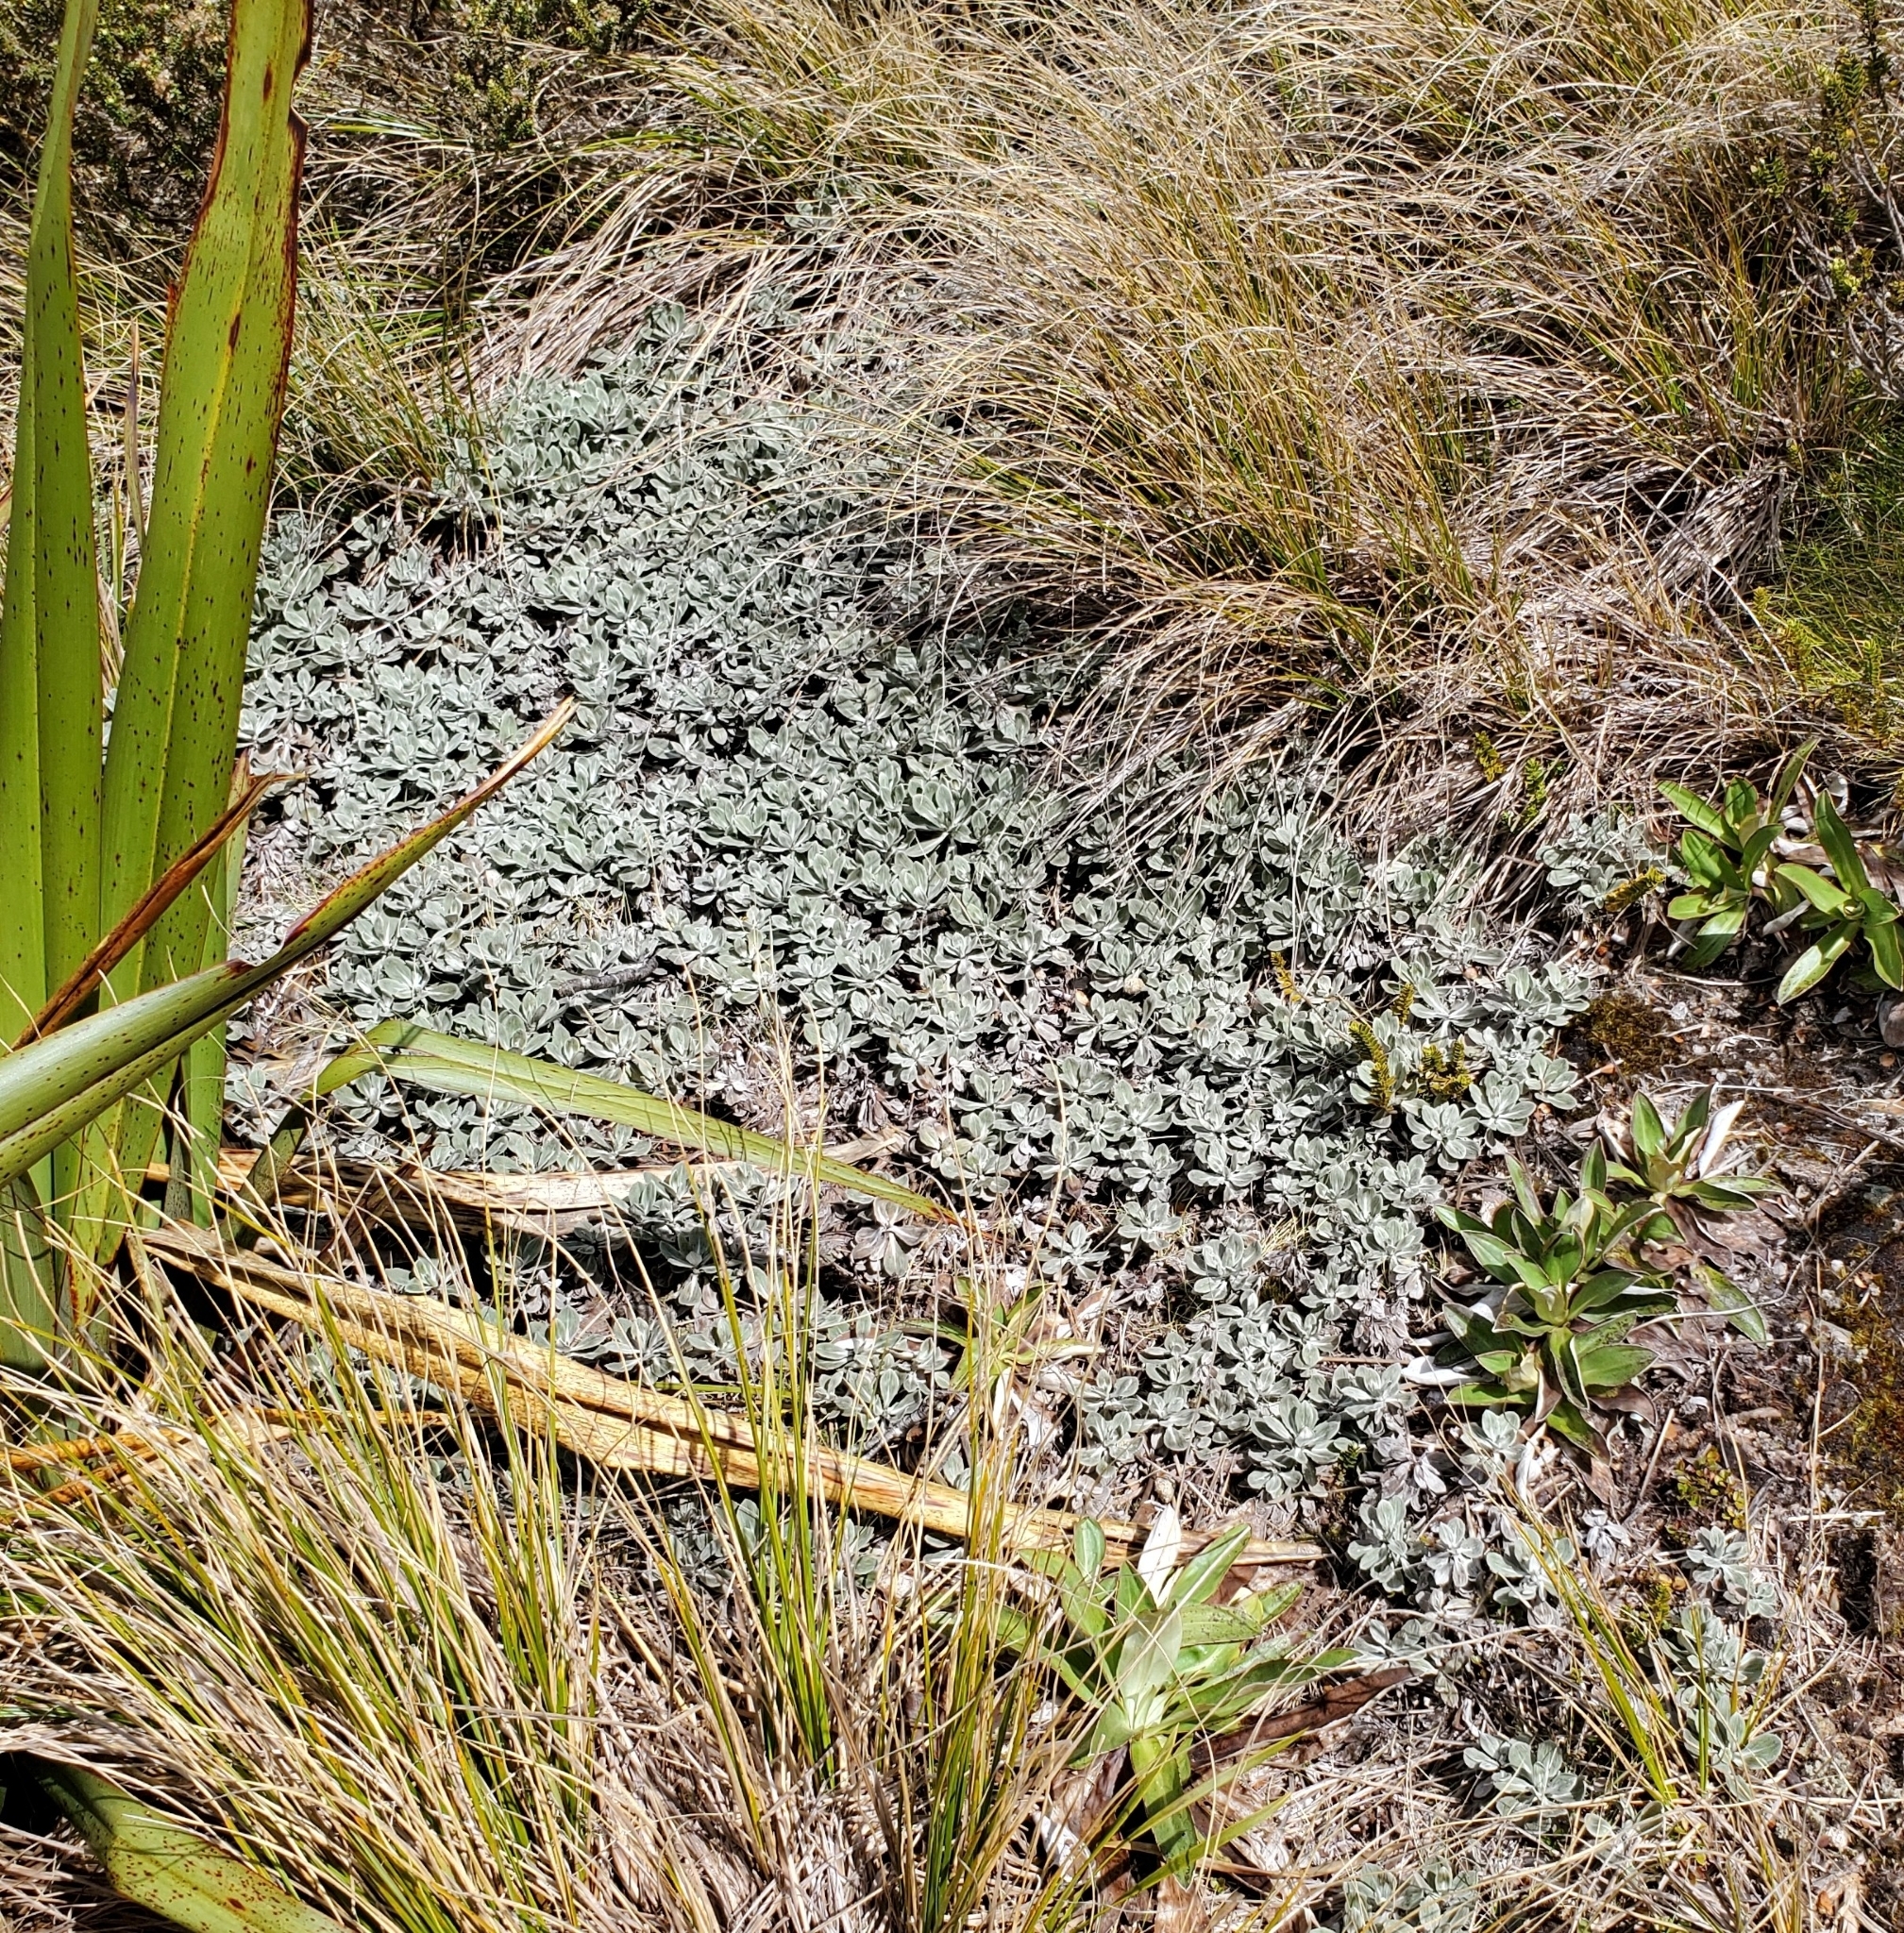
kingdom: Plantae
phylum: Tracheophyta
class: Magnoliopsida
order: Asterales
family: Asteraceae
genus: Celmisia
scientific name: Celmisia discolor
